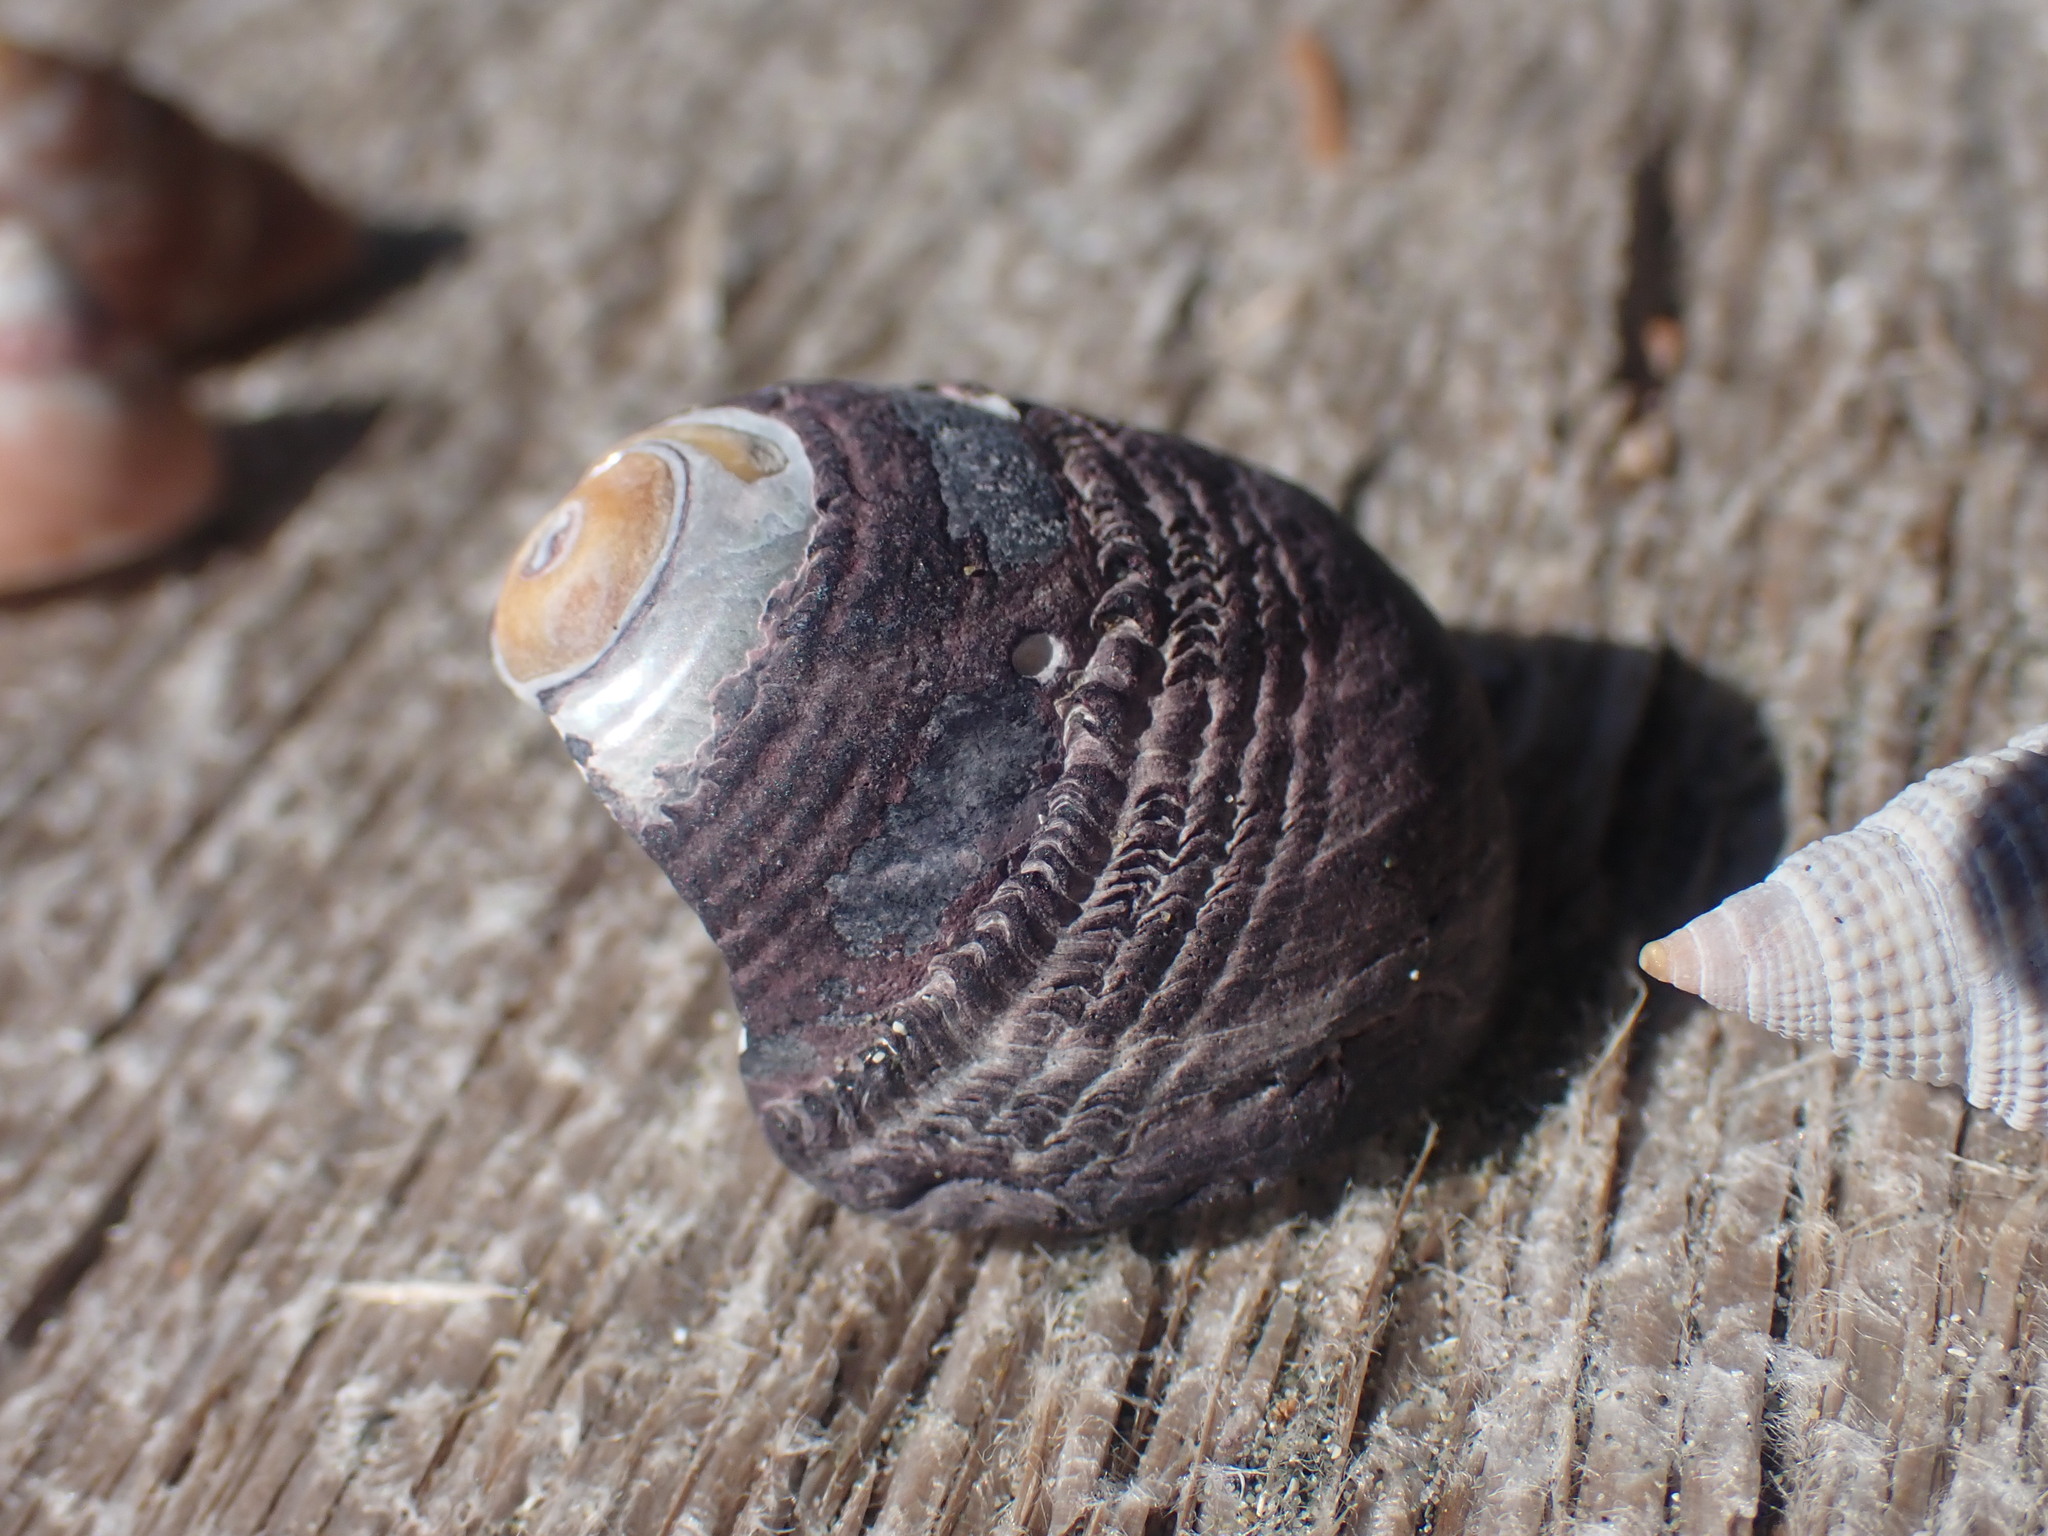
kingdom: Animalia
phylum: Mollusca
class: Gastropoda
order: Trochida
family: Tegulidae
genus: Tegula
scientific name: Tegula funebralis
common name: Black tegula
